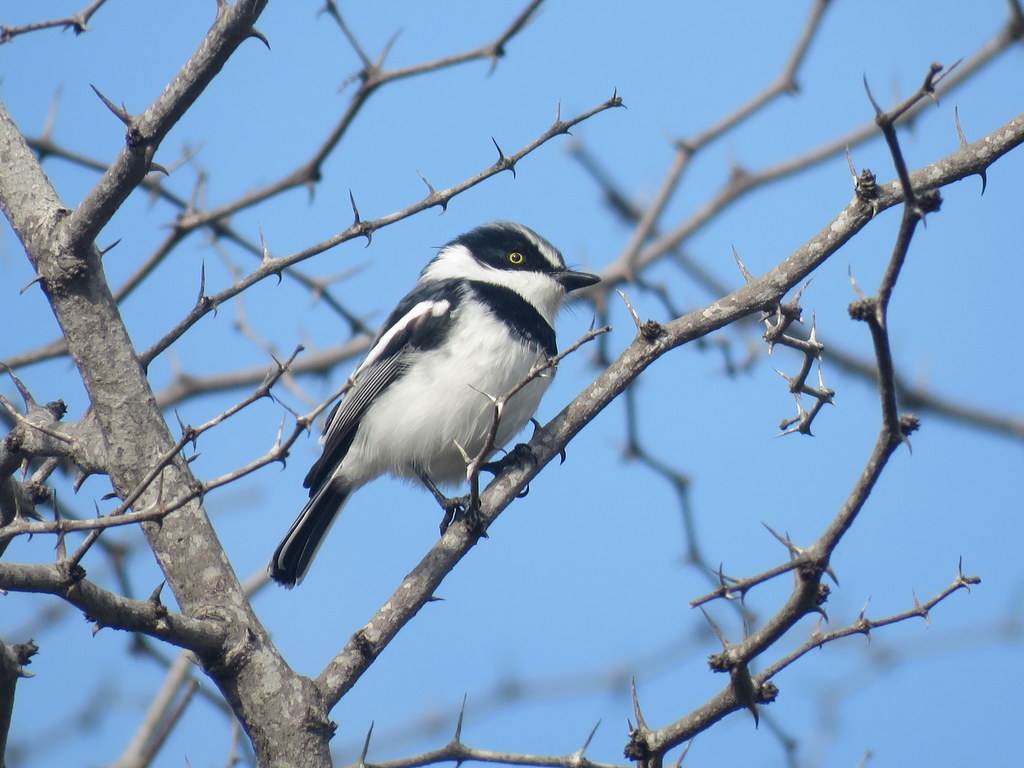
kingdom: Animalia
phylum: Chordata
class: Aves
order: Passeriformes
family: Platysteiridae
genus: Batis
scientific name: Batis molitor
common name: Chinspot batis
